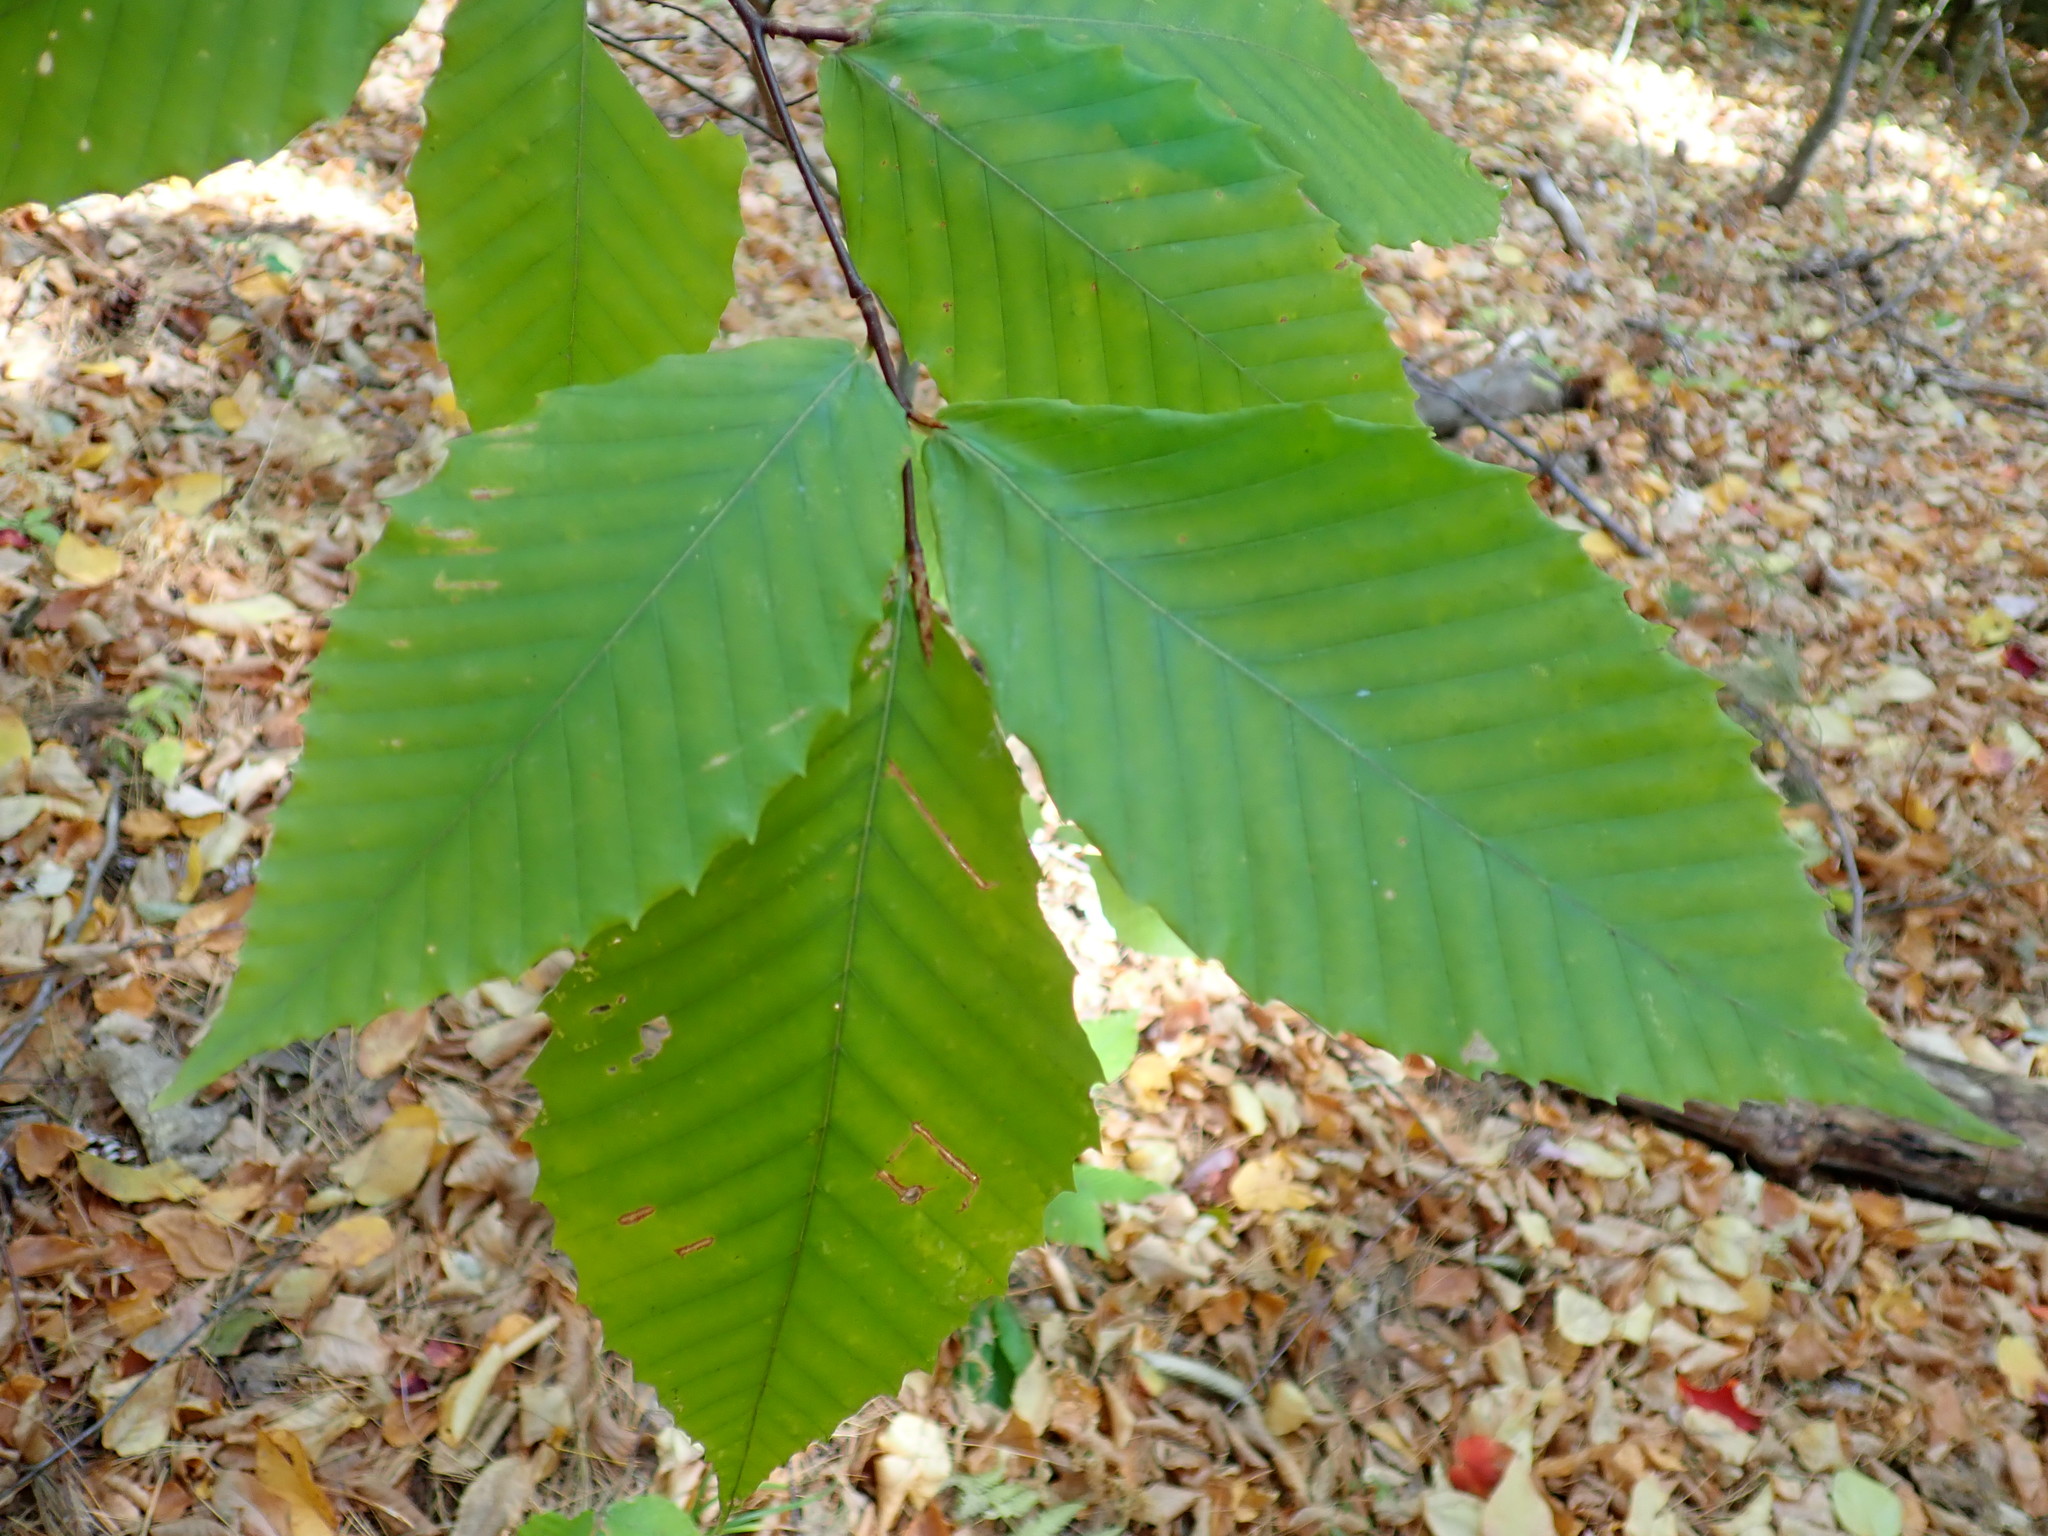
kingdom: Plantae
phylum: Tracheophyta
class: Magnoliopsida
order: Fagales
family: Fagaceae
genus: Fagus
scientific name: Fagus grandifolia
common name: American beech
